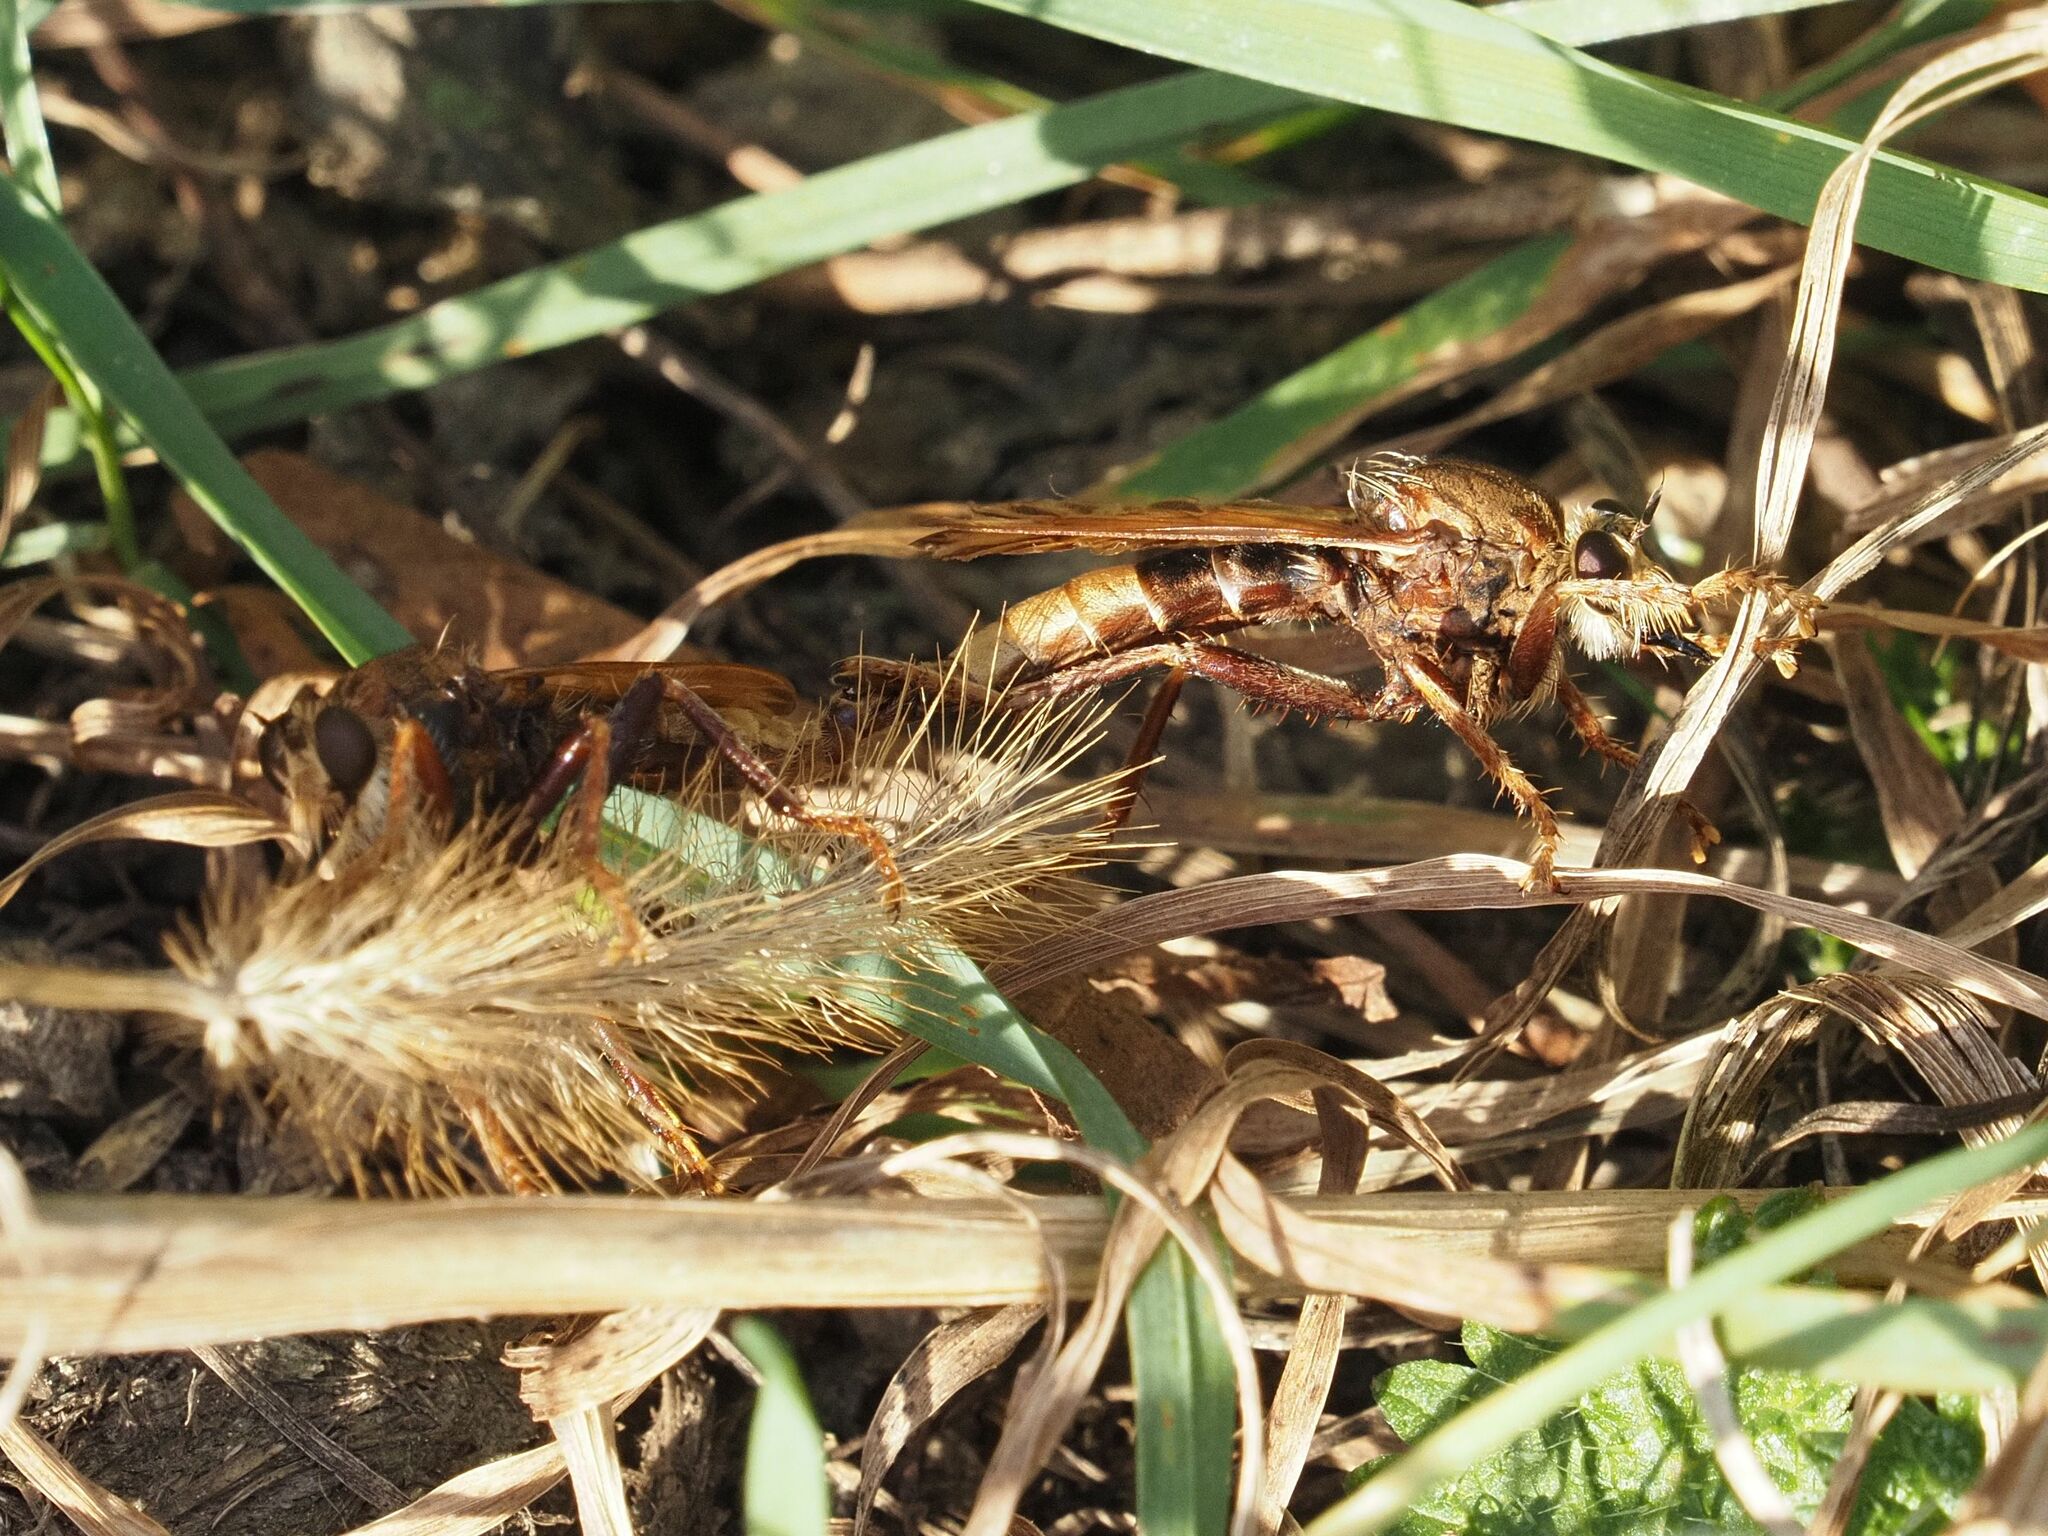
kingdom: Animalia
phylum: Arthropoda
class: Insecta
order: Diptera
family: Asilidae
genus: Asilus
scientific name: Asilus crabroniformis
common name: Hornet robberfly
